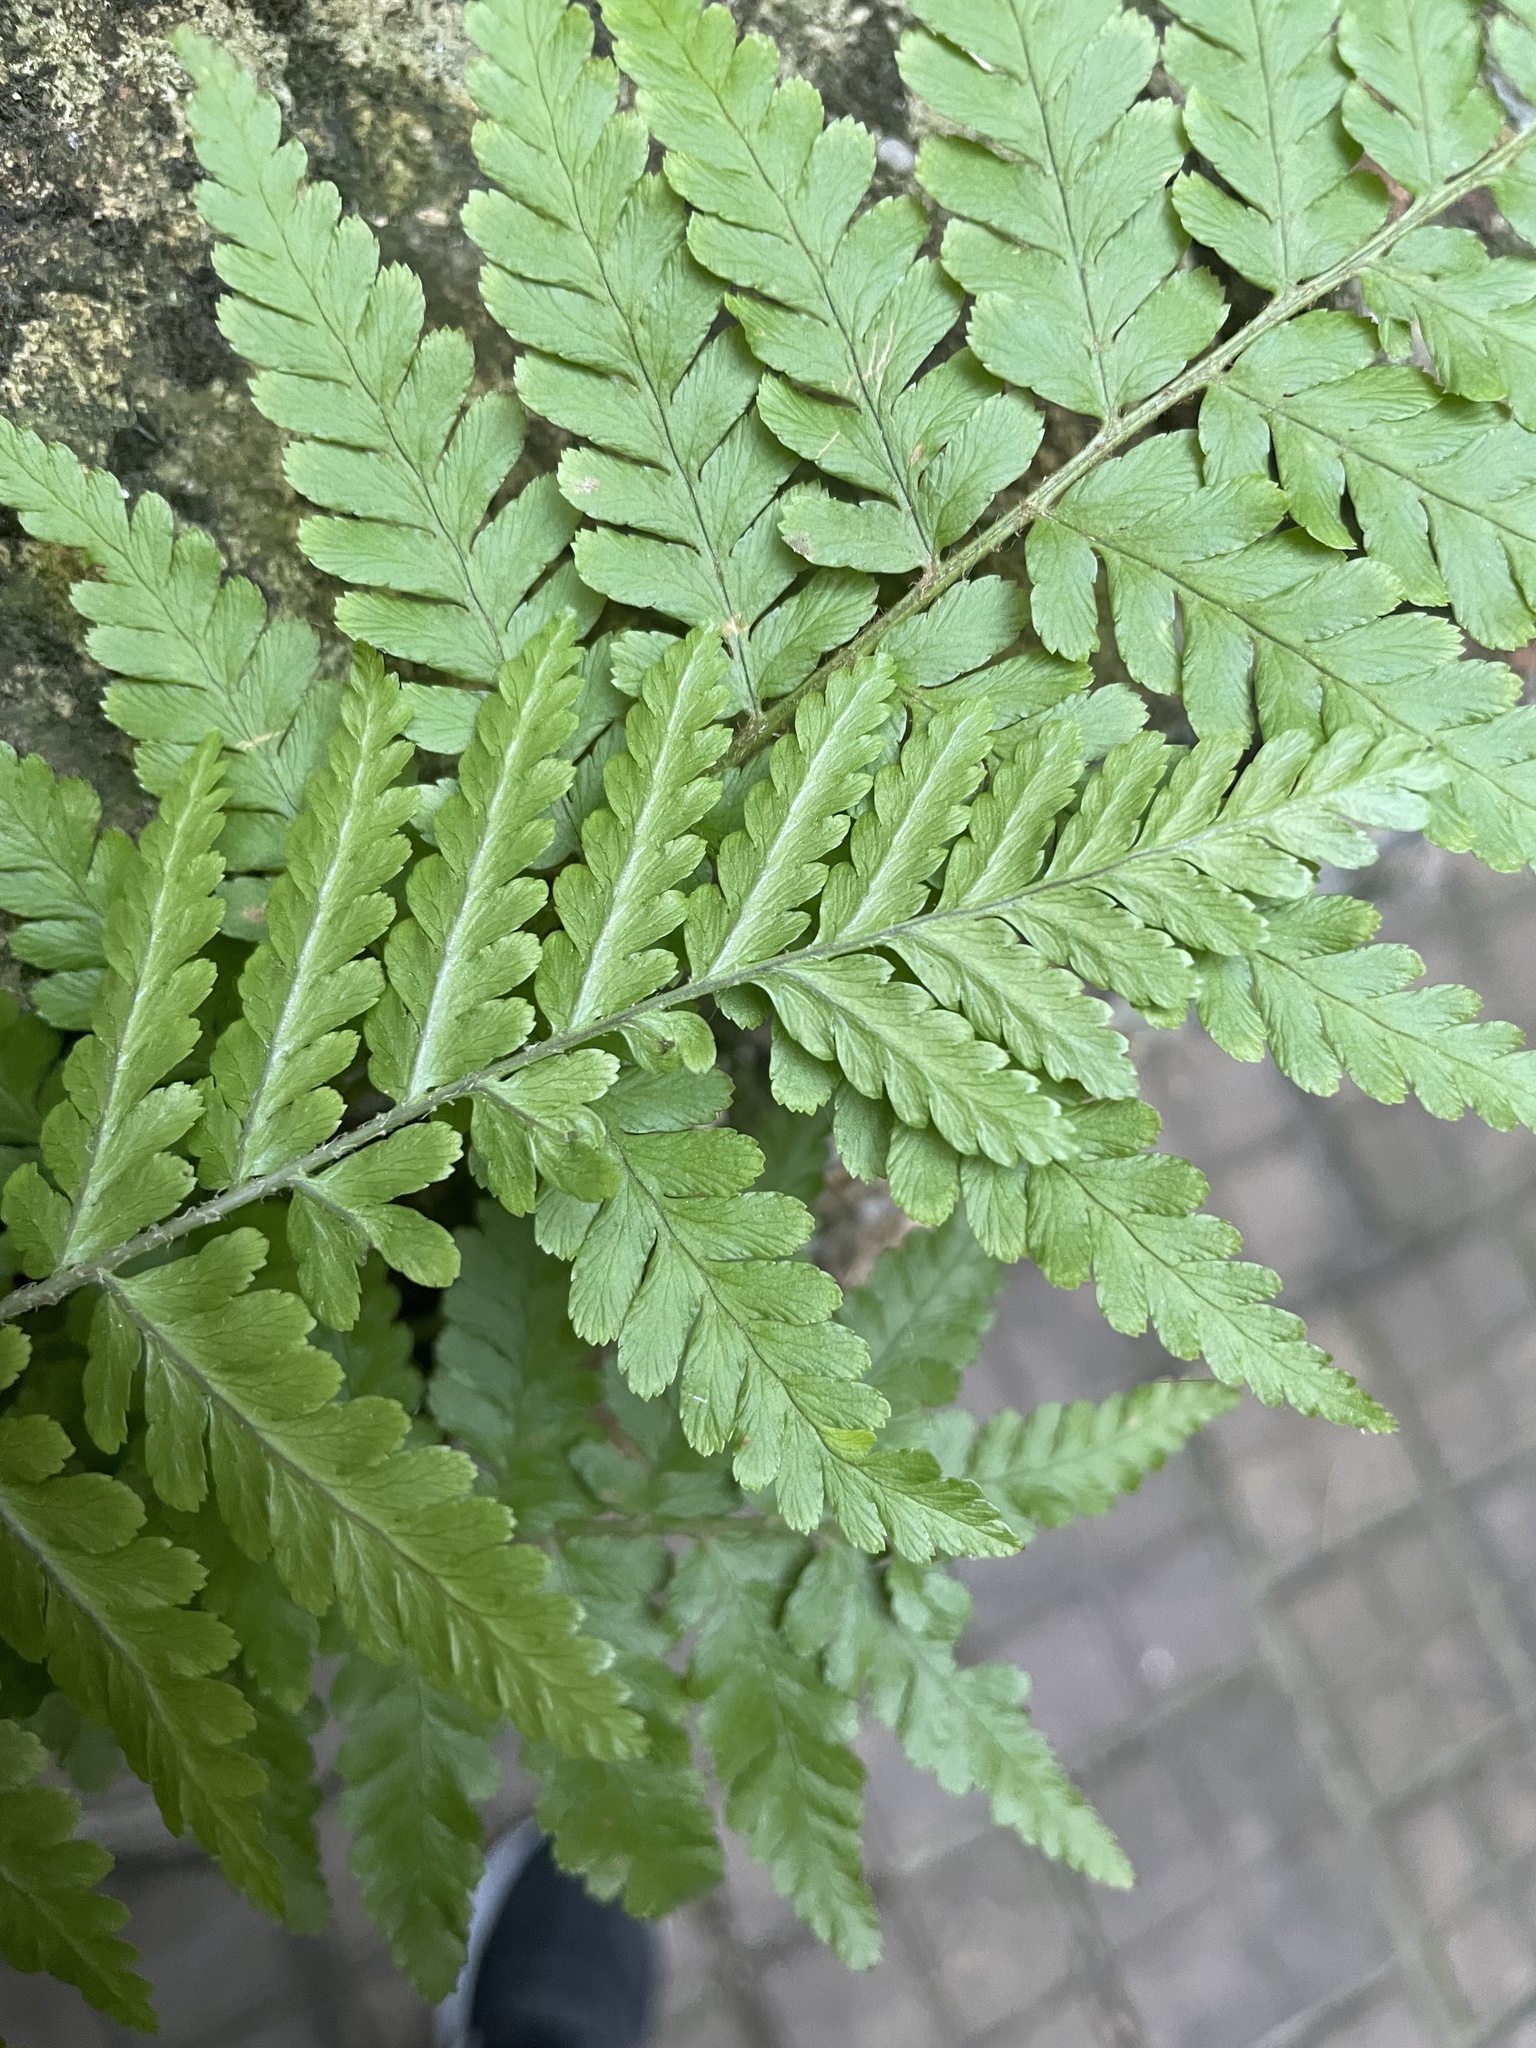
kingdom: Plantae
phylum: Tracheophyta
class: Polypodiopsida
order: Polypodiales
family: Dryopteridaceae
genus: Dryopteris
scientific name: Dryopteris filix-mas
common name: Male fern
